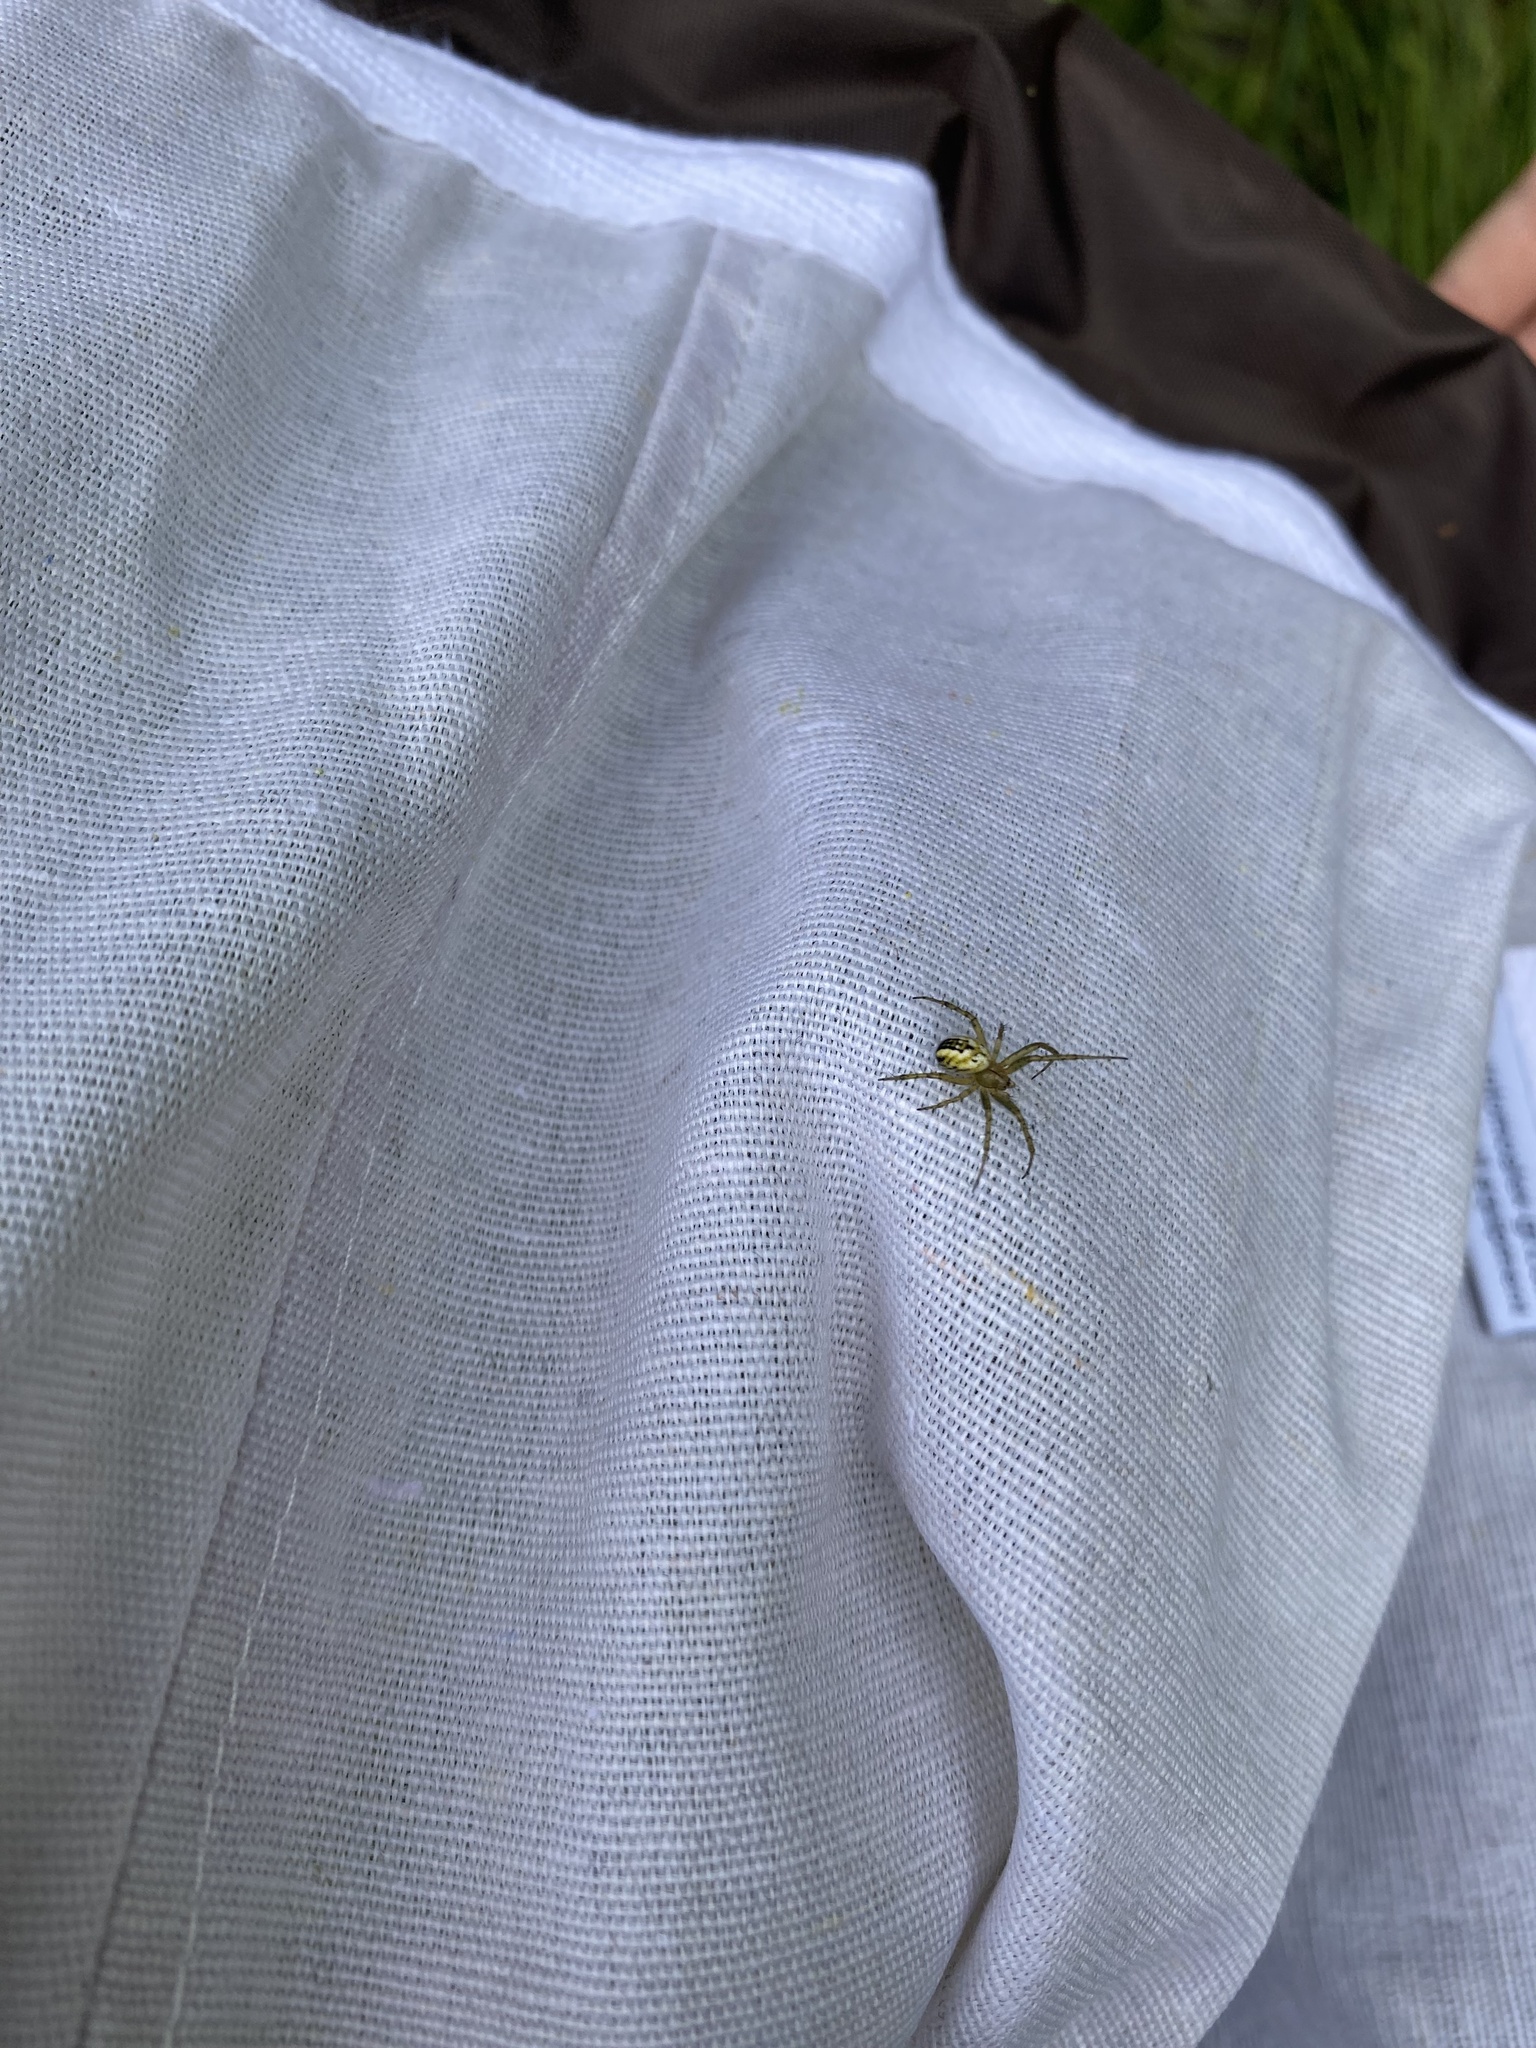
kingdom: Animalia
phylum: Arthropoda
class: Arachnida
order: Araneae
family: Araneidae
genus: Mangora
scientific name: Mangora acalypha
